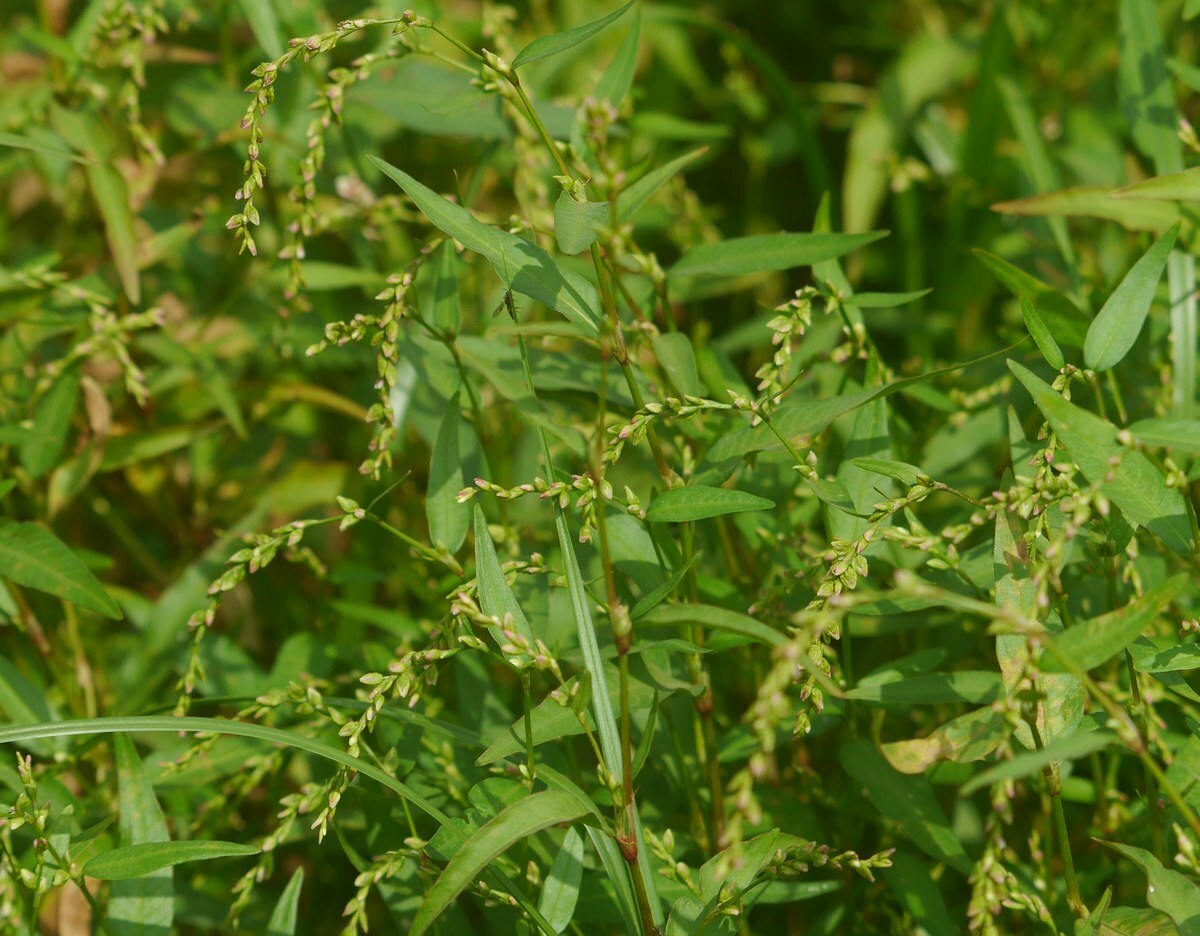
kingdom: Plantae
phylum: Tracheophyta
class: Magnoliopsida
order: Caryophyllales
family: Polygonaceae
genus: Persicaria
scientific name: Persicaria hydropiper
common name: Water-pepper
